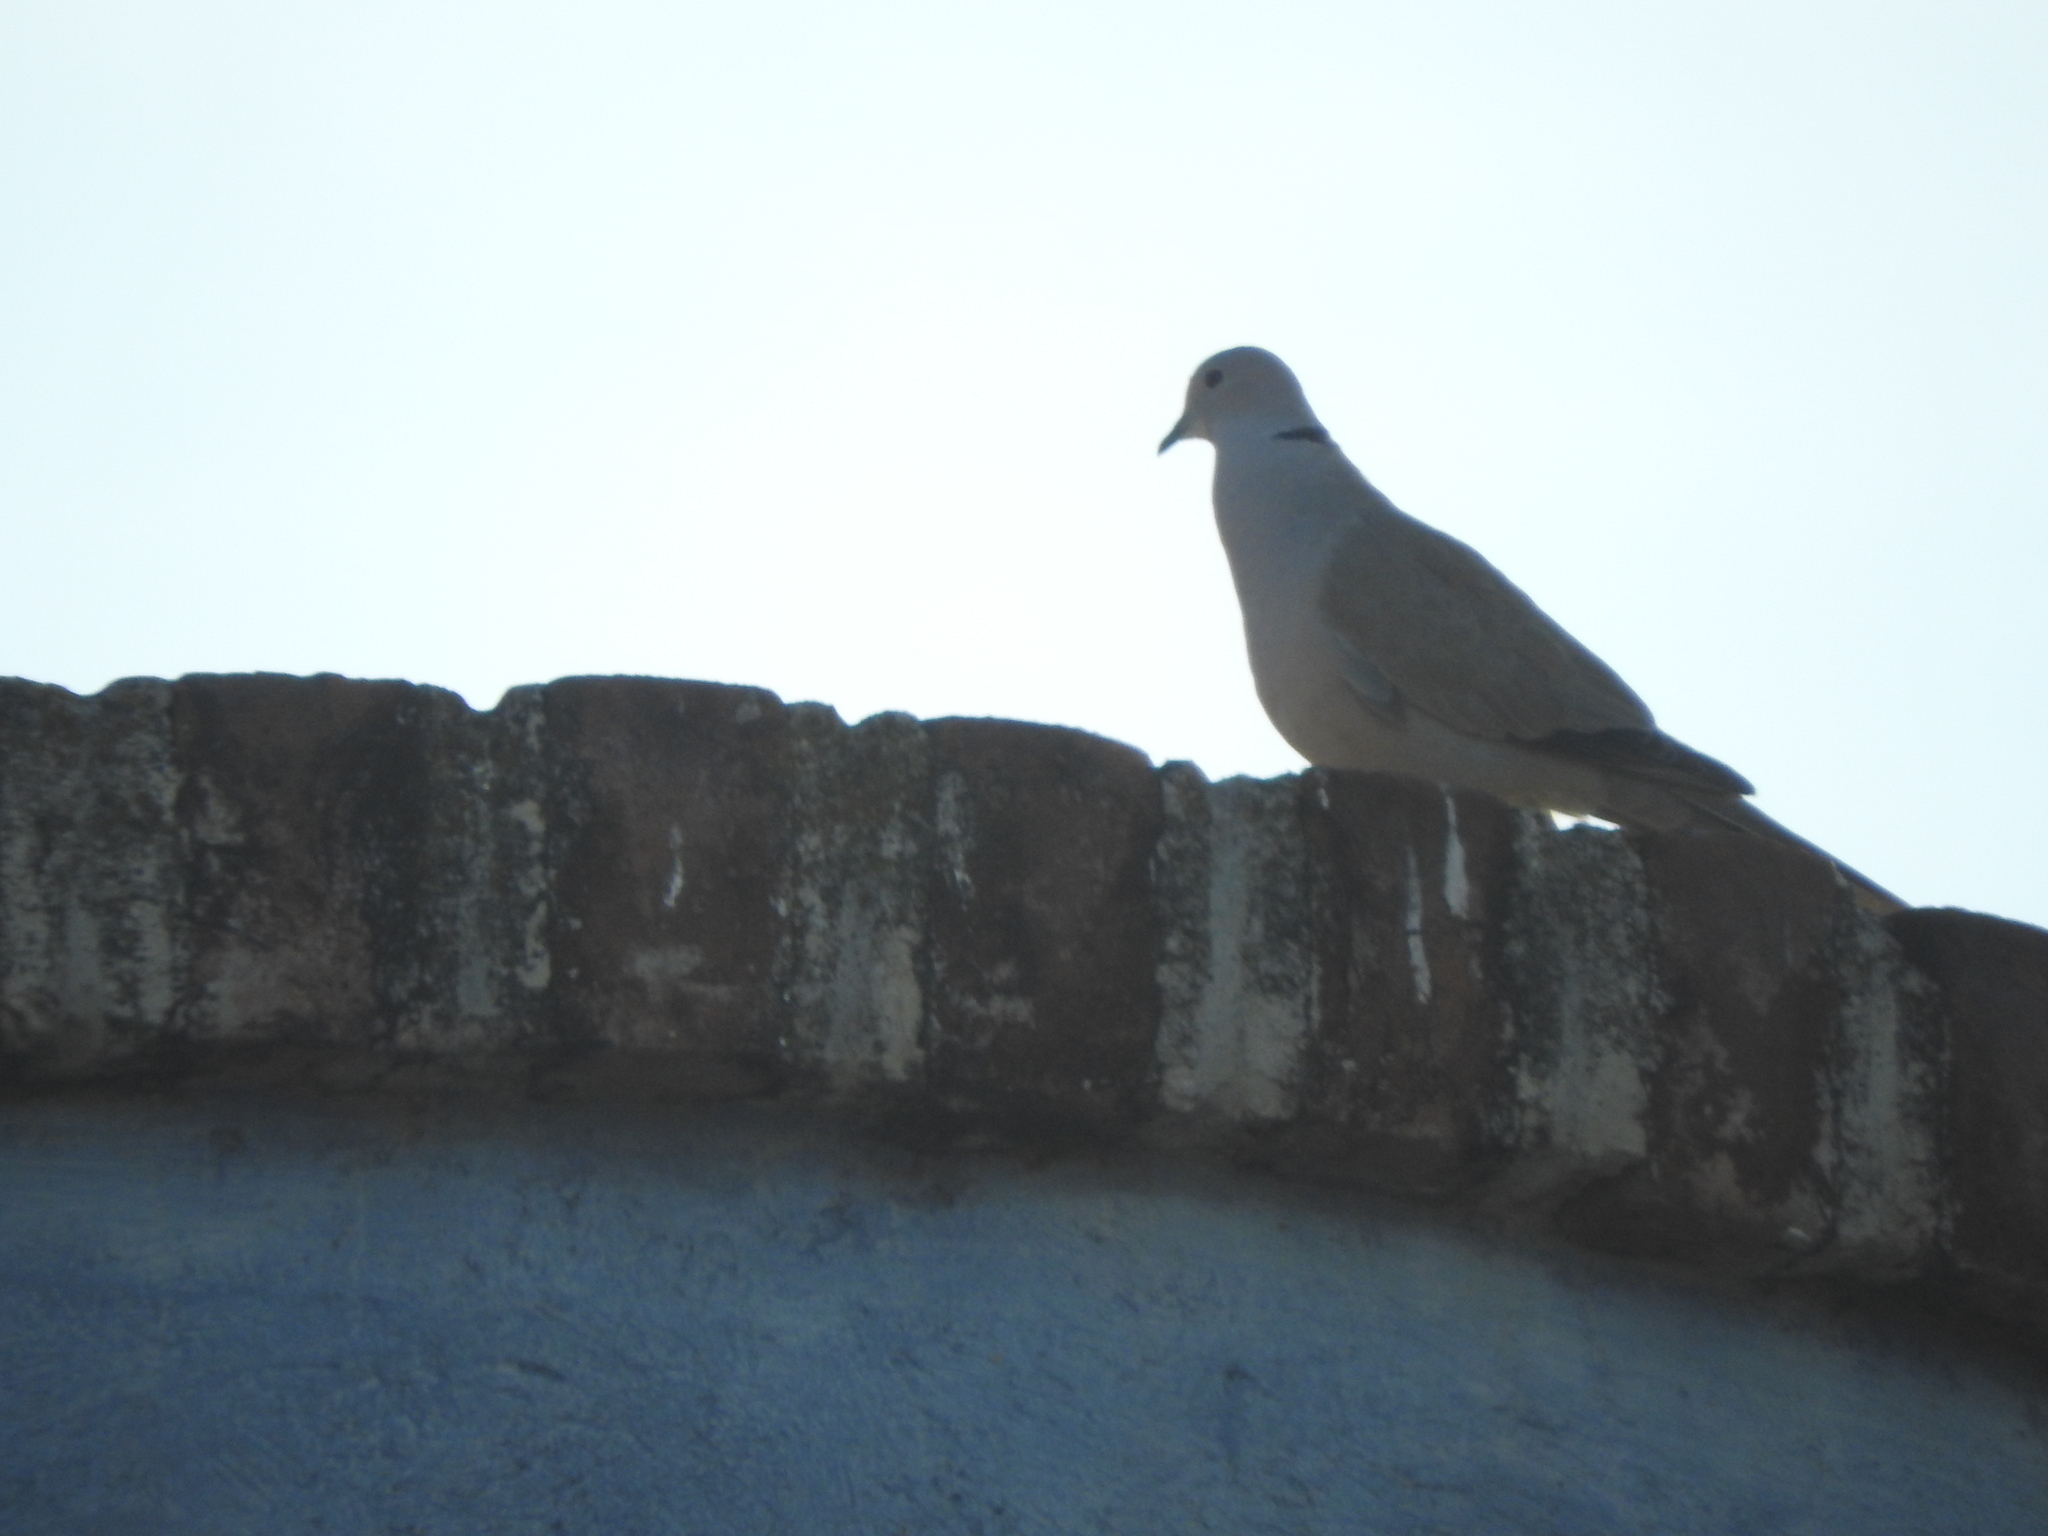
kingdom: Animalia
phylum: Chordata
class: Aves
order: Columbiformes
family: Columbidae
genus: Streptopelia
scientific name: Streptopelia decaocto
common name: Eurasian collared dove
